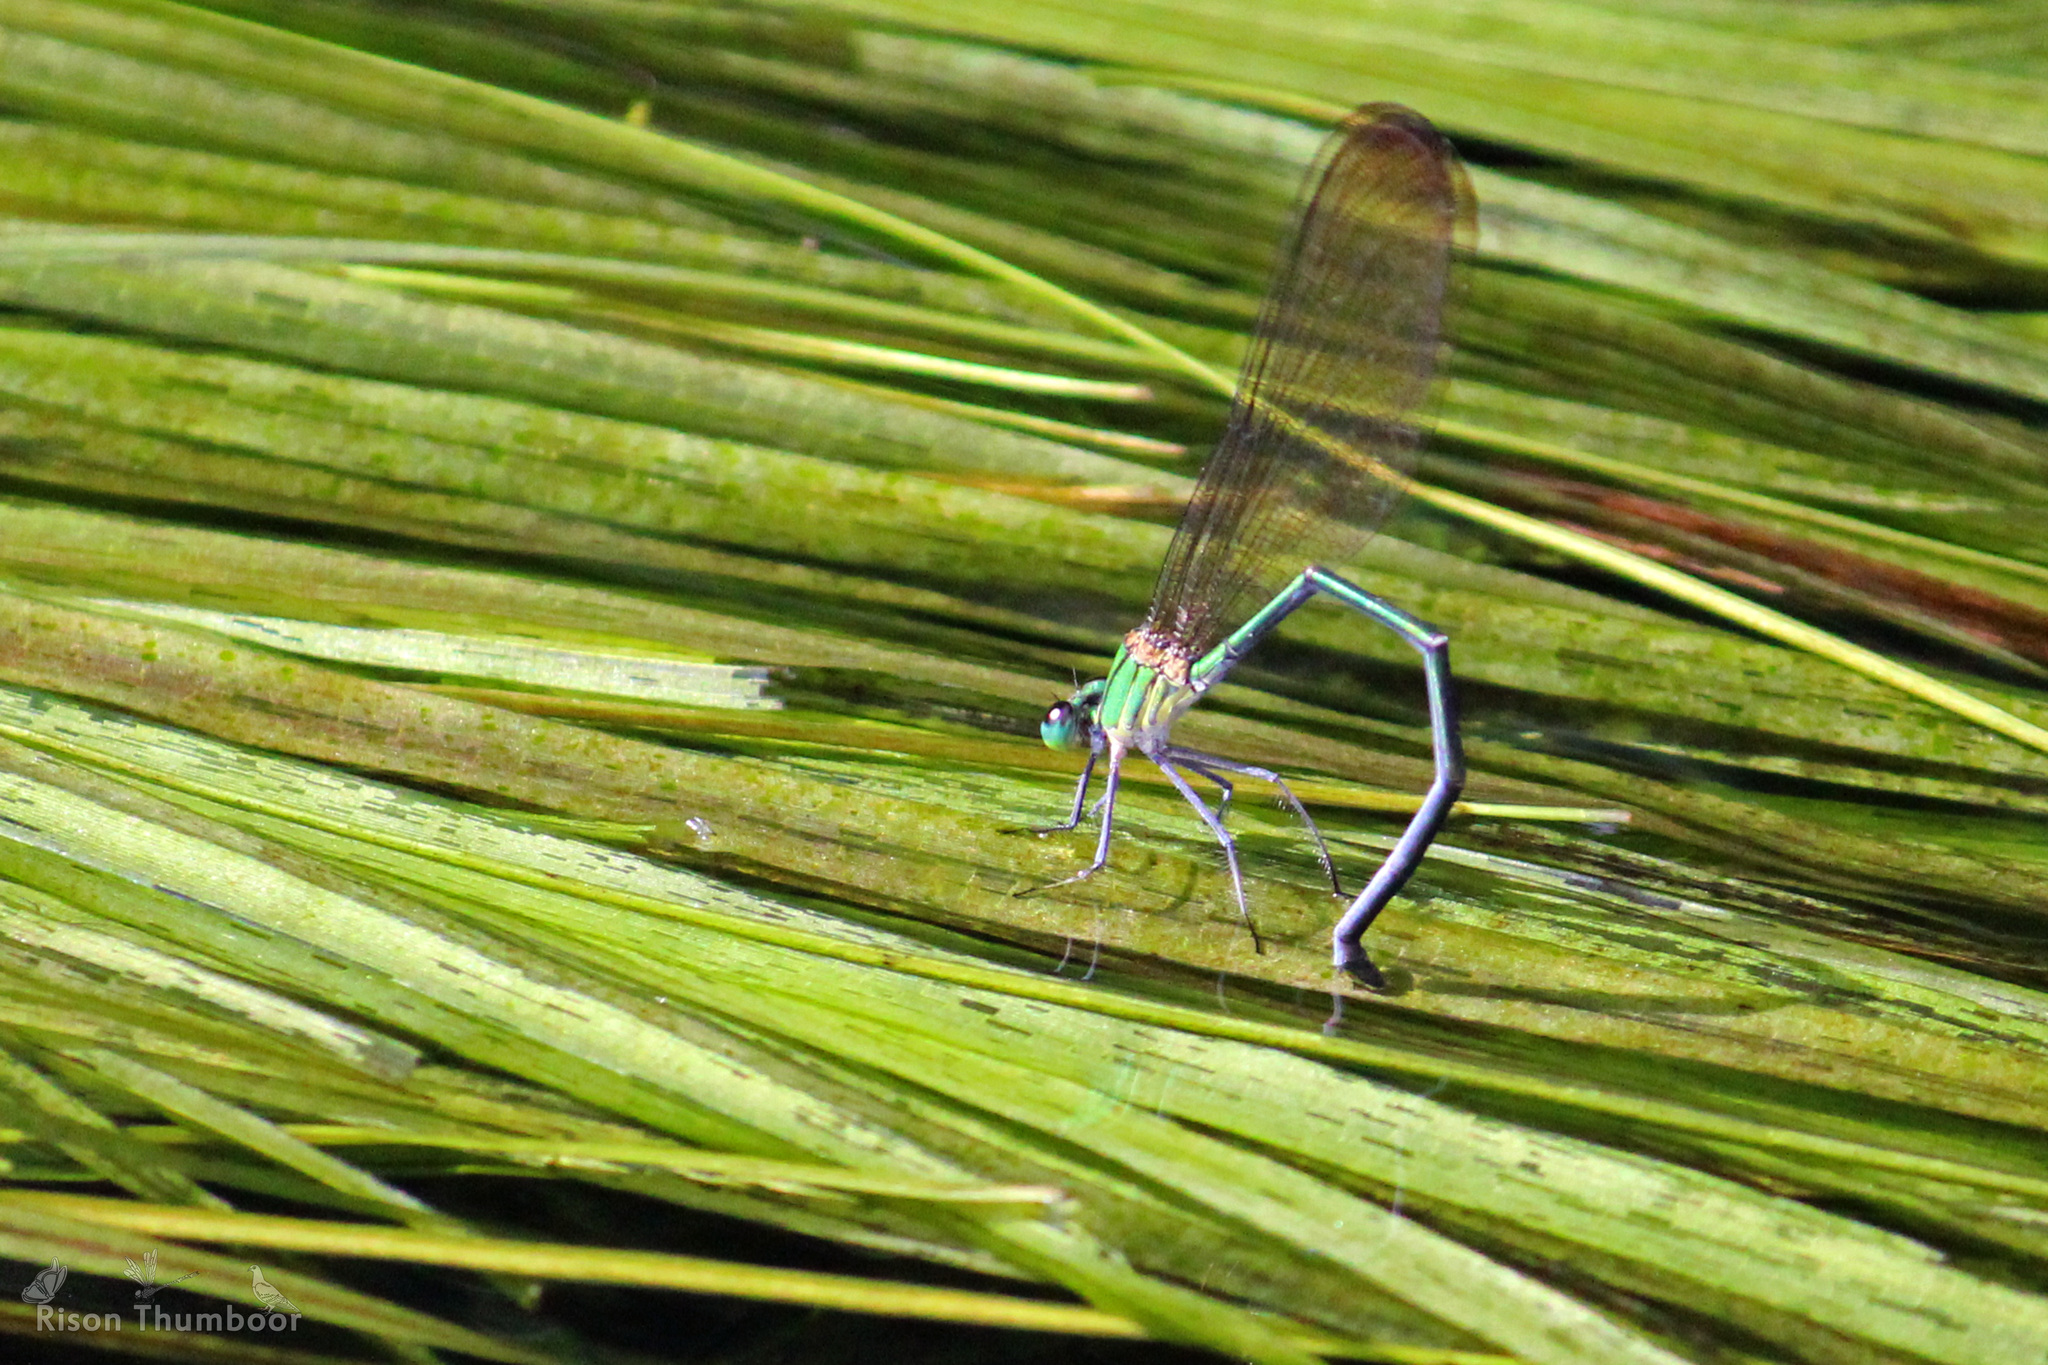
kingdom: Animalia
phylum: Arthropoda
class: Insecta
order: Odonata
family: Calopterygidae
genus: Vestalis
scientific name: Vestalis apicalis
